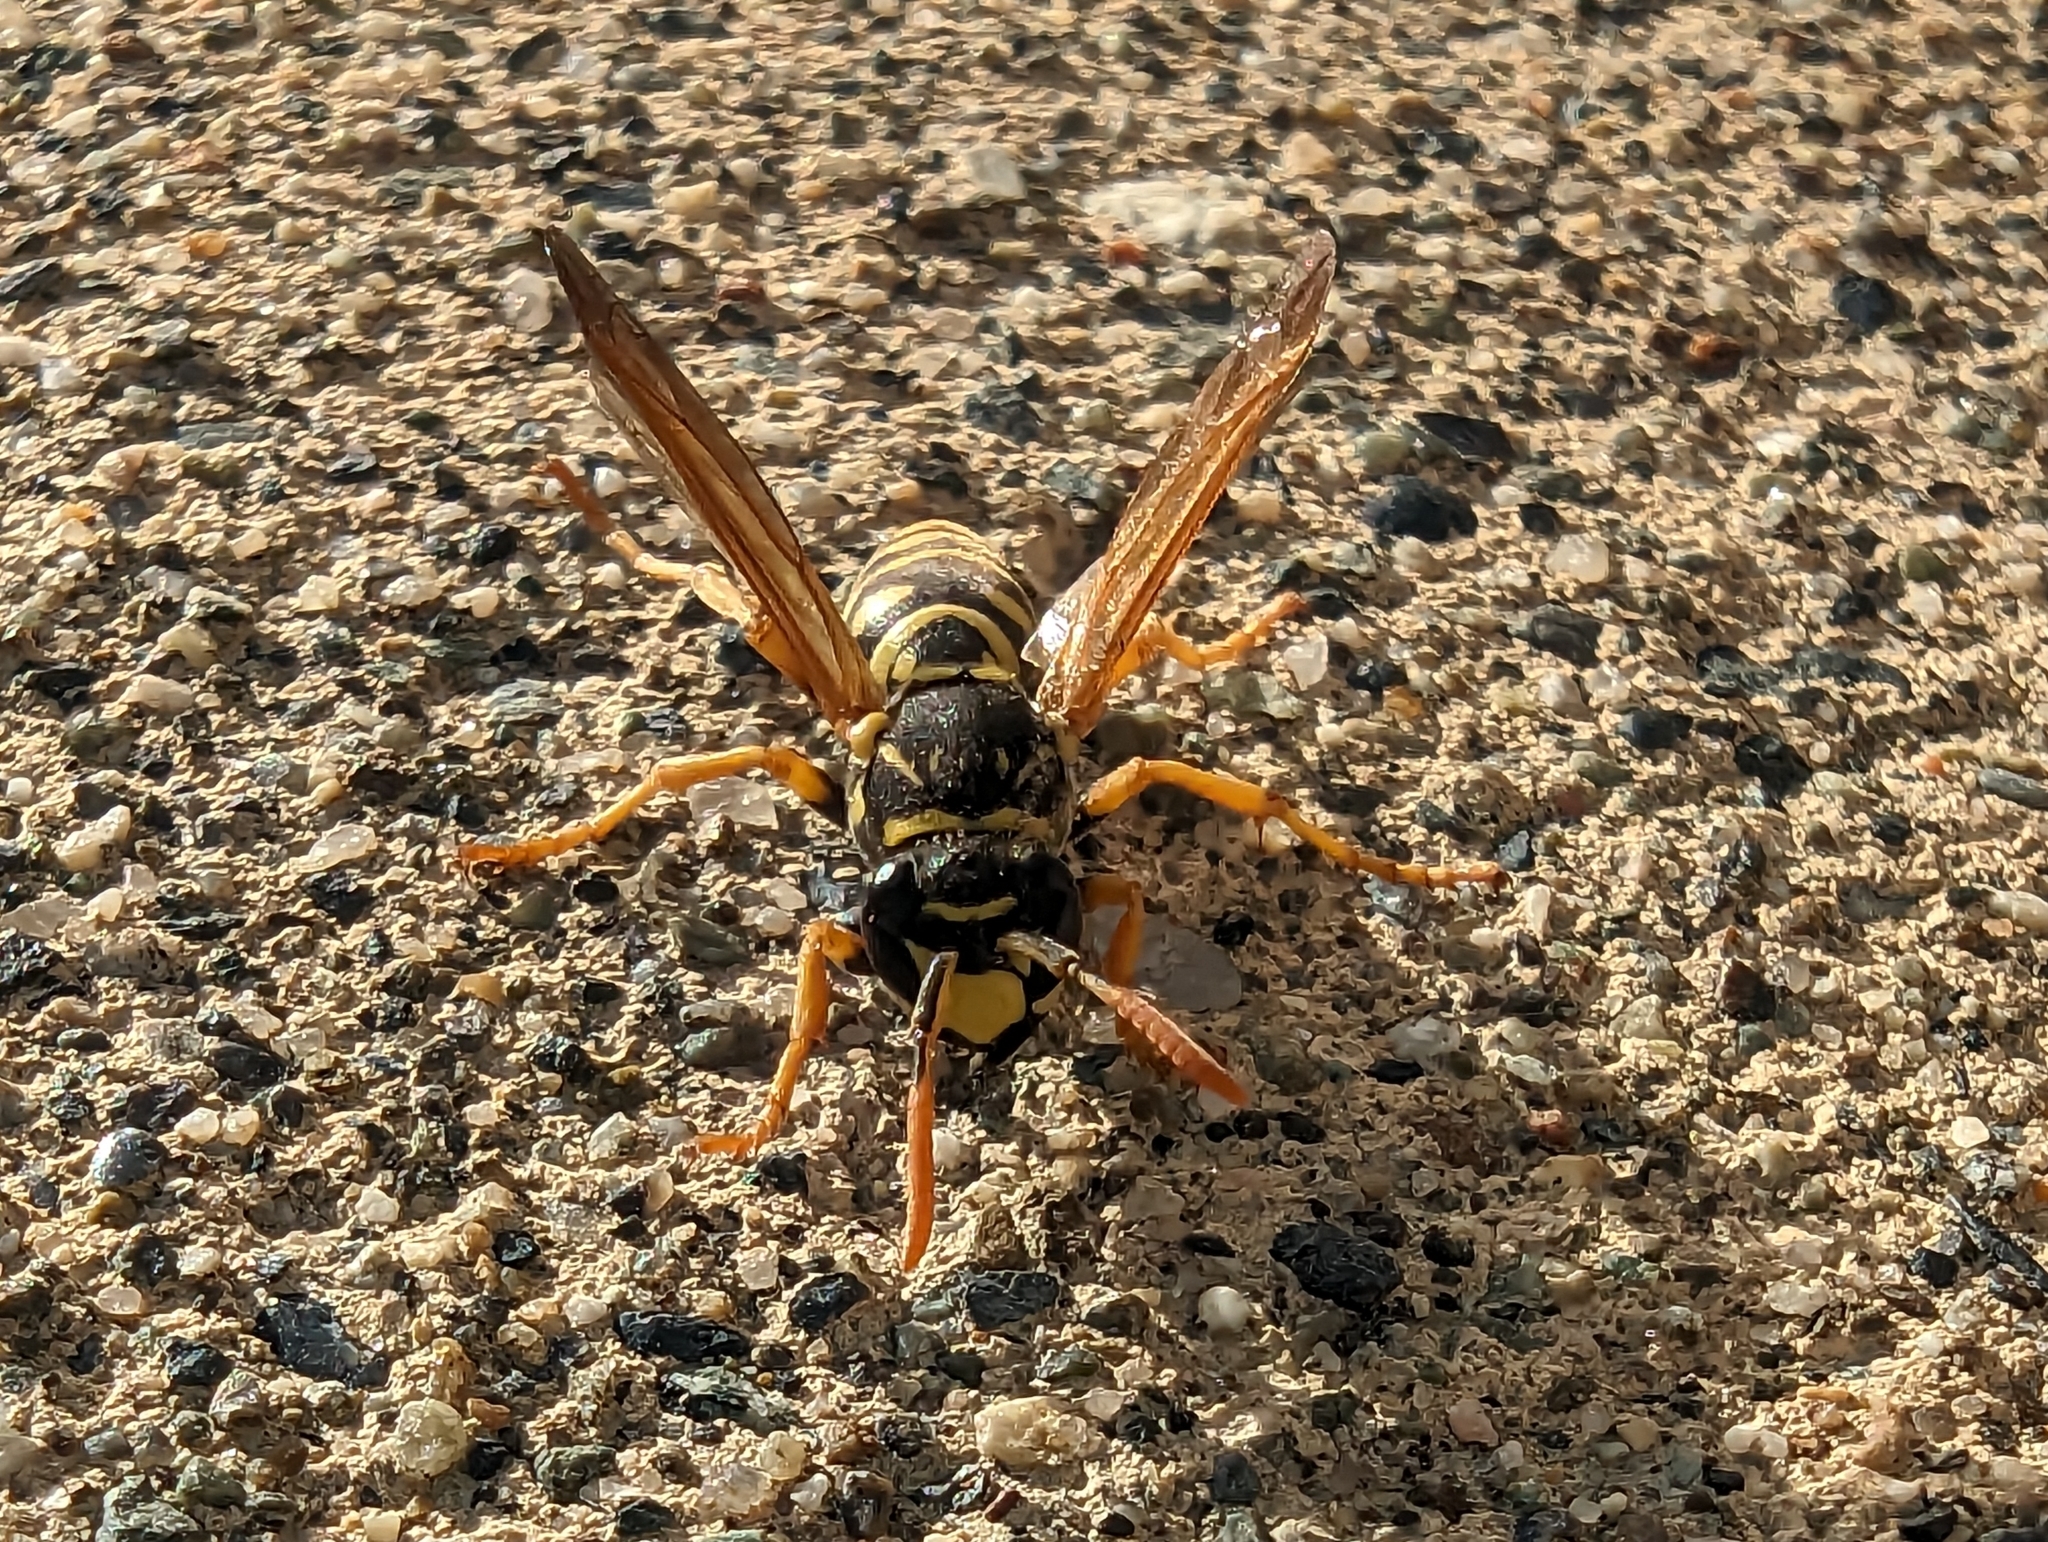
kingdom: Animalia
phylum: Arthropoda
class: Insecta
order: Hymenoptera
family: Eumenidae
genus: Polistes
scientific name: Polistes dominula
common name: Paper wasp
